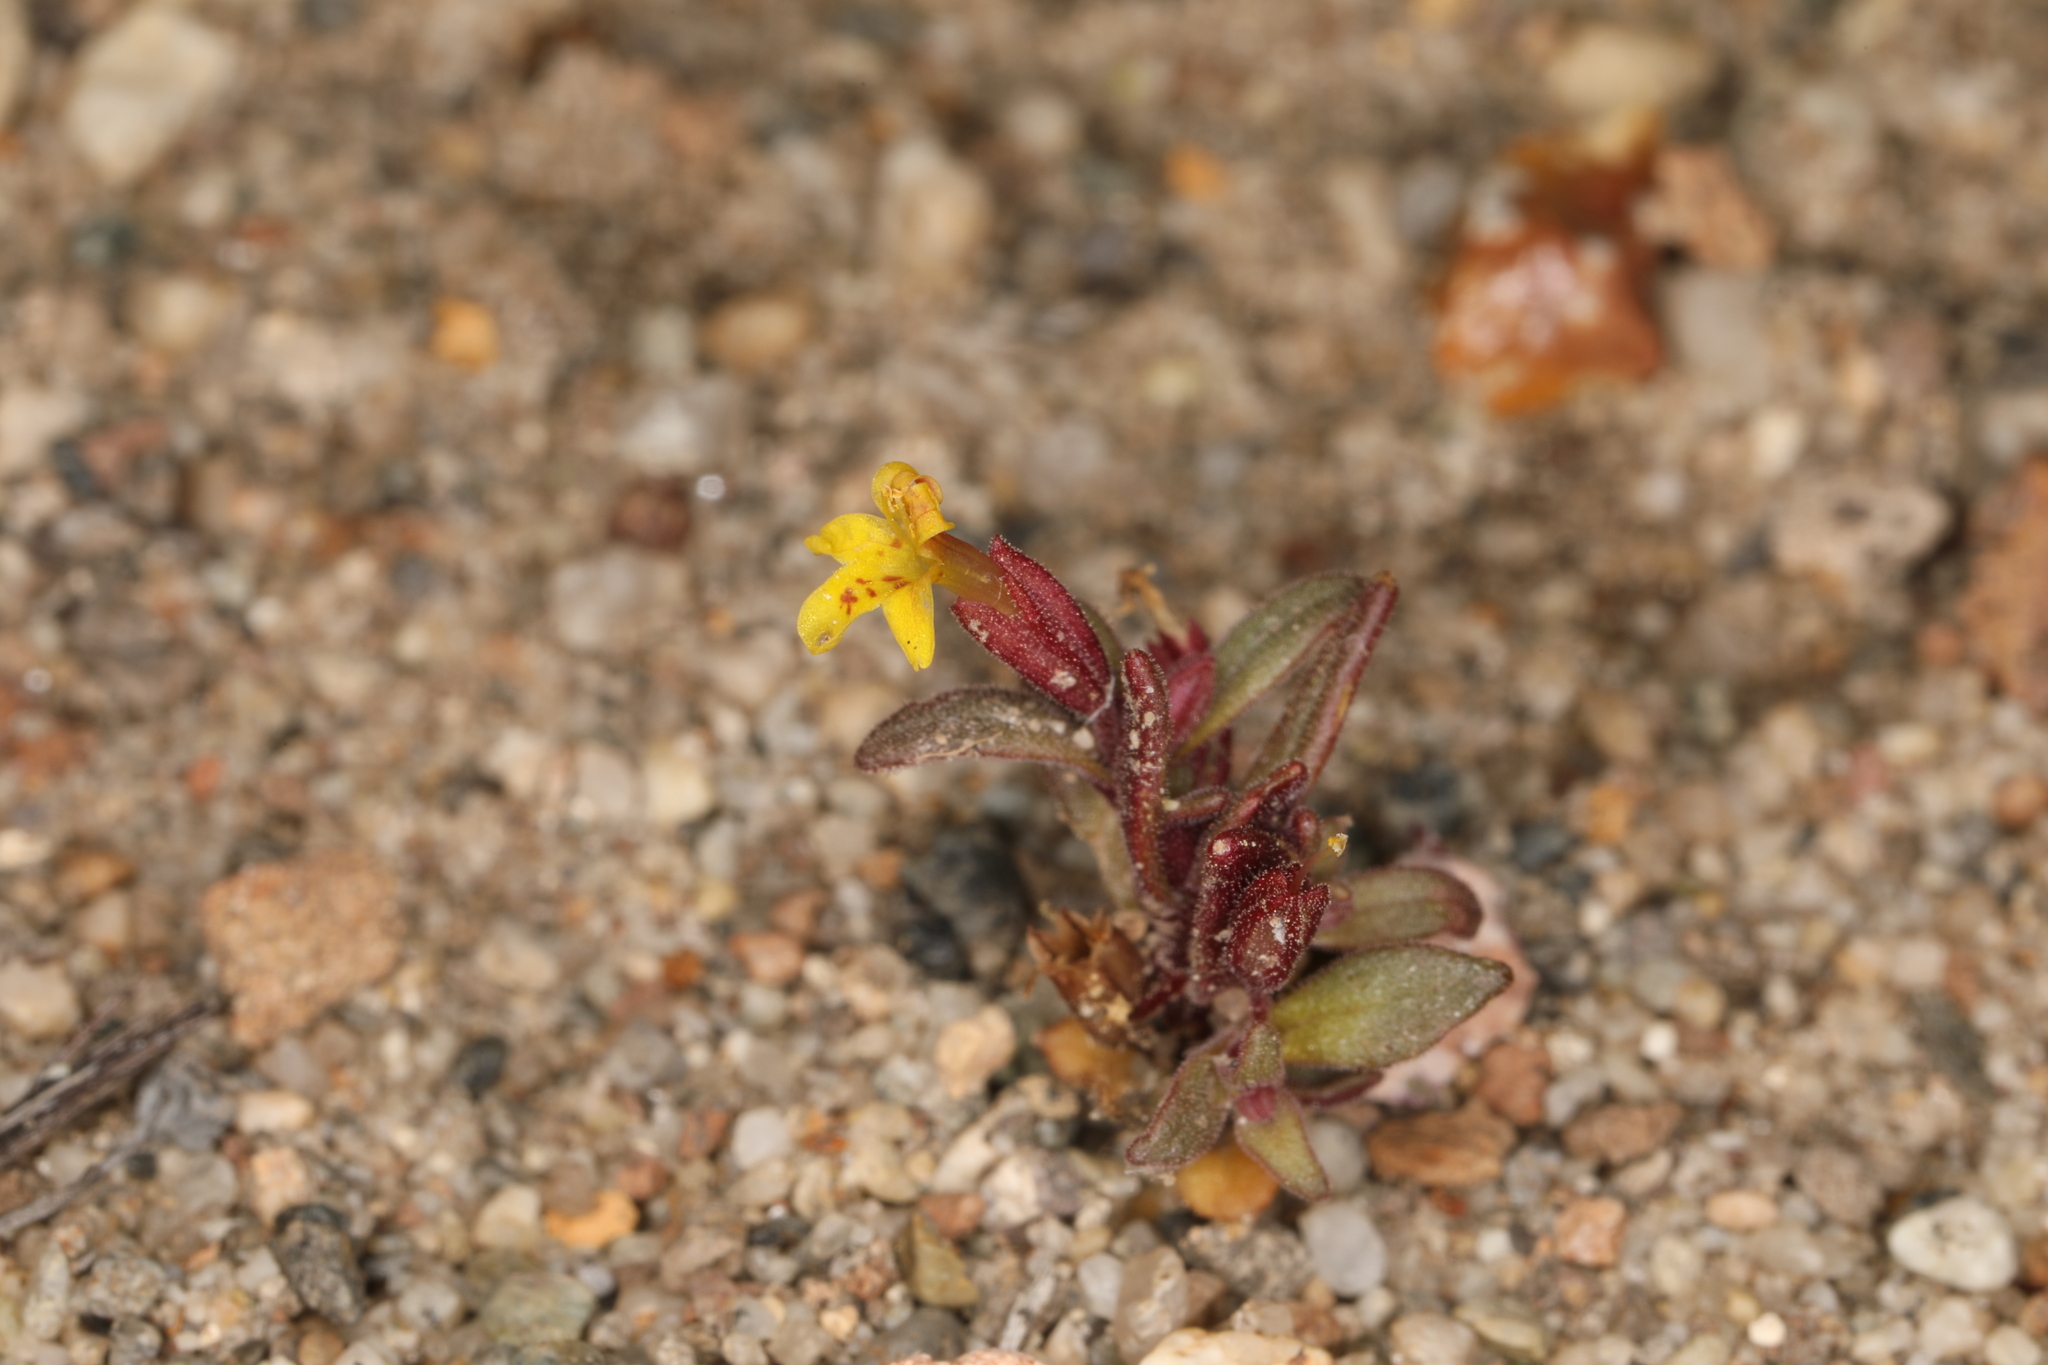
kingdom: Plantae
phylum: Tracheophyta
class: Magnoliopsida
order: Lamiales
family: Phrymaceae
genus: Erythranthe
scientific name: Erythranthe suksdorfii
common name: Suksdorf's monkeyflower
